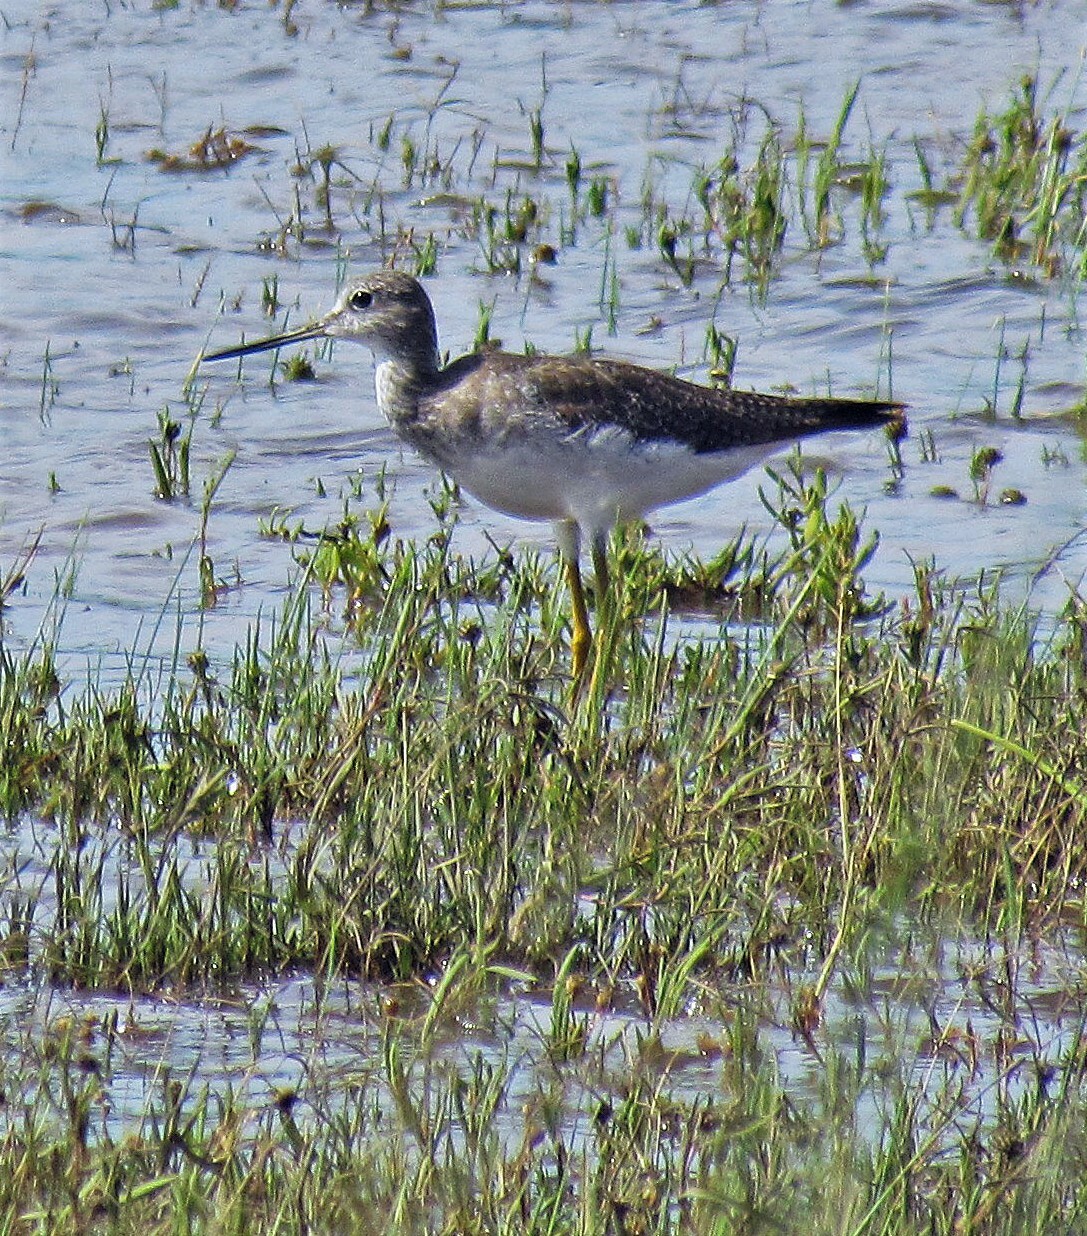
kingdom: Animalia
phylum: Chordata
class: Aves
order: Charadriiformes
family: Scolopacidae
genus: Tringa
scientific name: Tringa melanoleuca
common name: Greater yellowlegs
